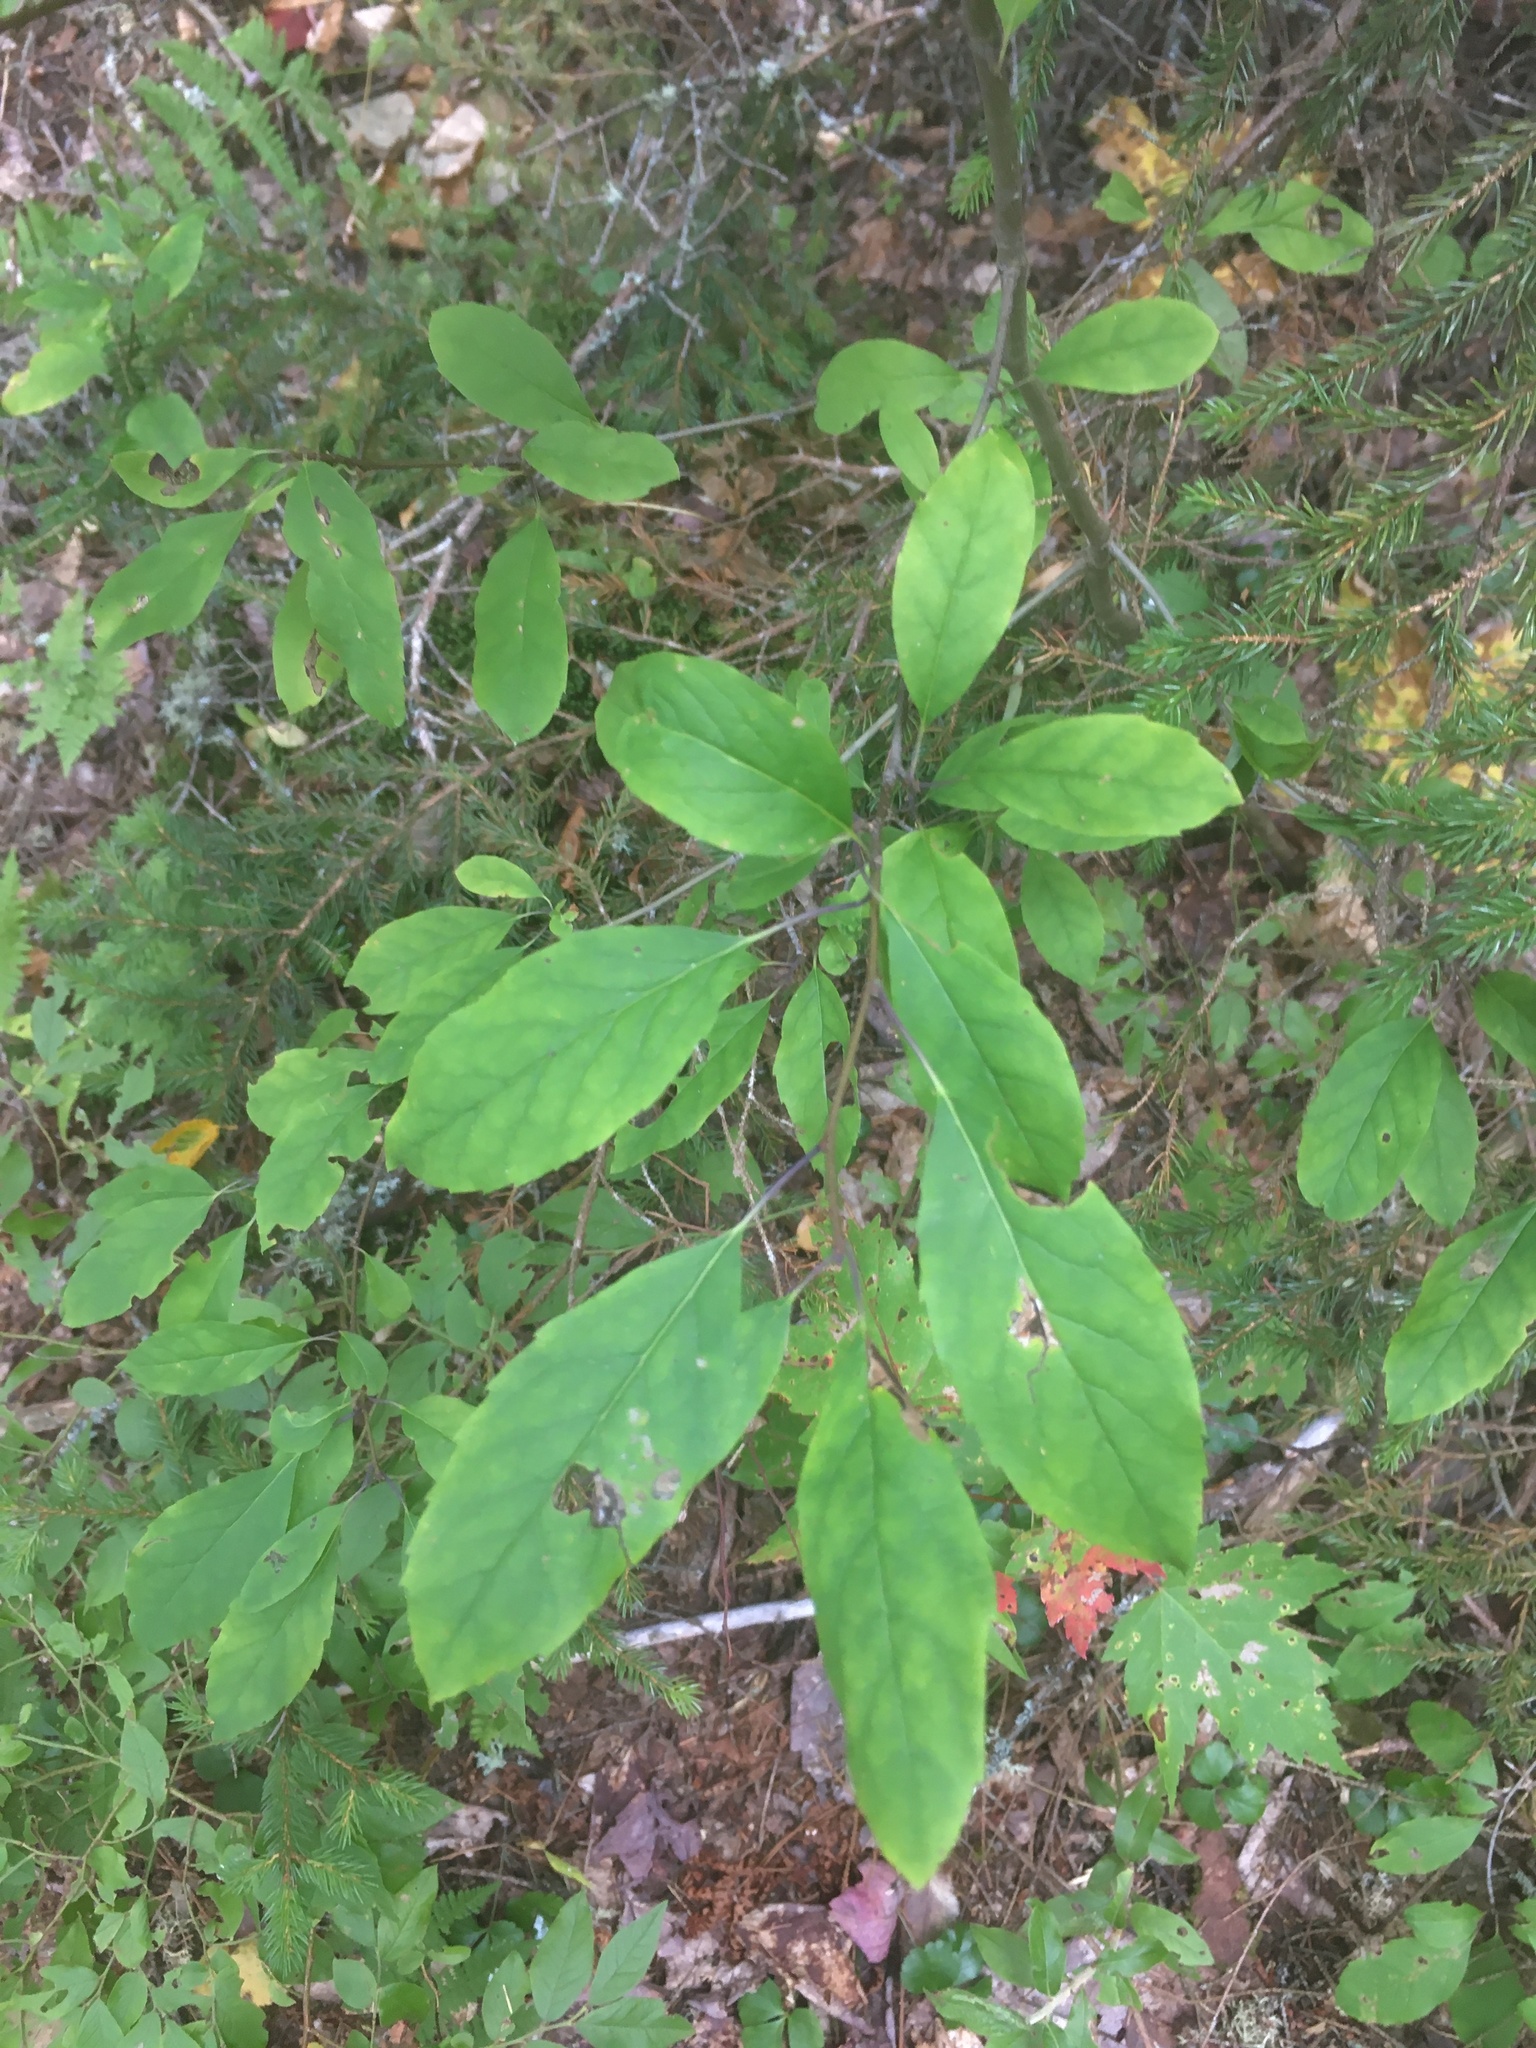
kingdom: Plantae
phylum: Tracheophyta
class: Magnoliopsida
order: Aquifoliales
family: Aquifoliaceae
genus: Ilex
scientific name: Ilex mucronata
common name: Catberry
